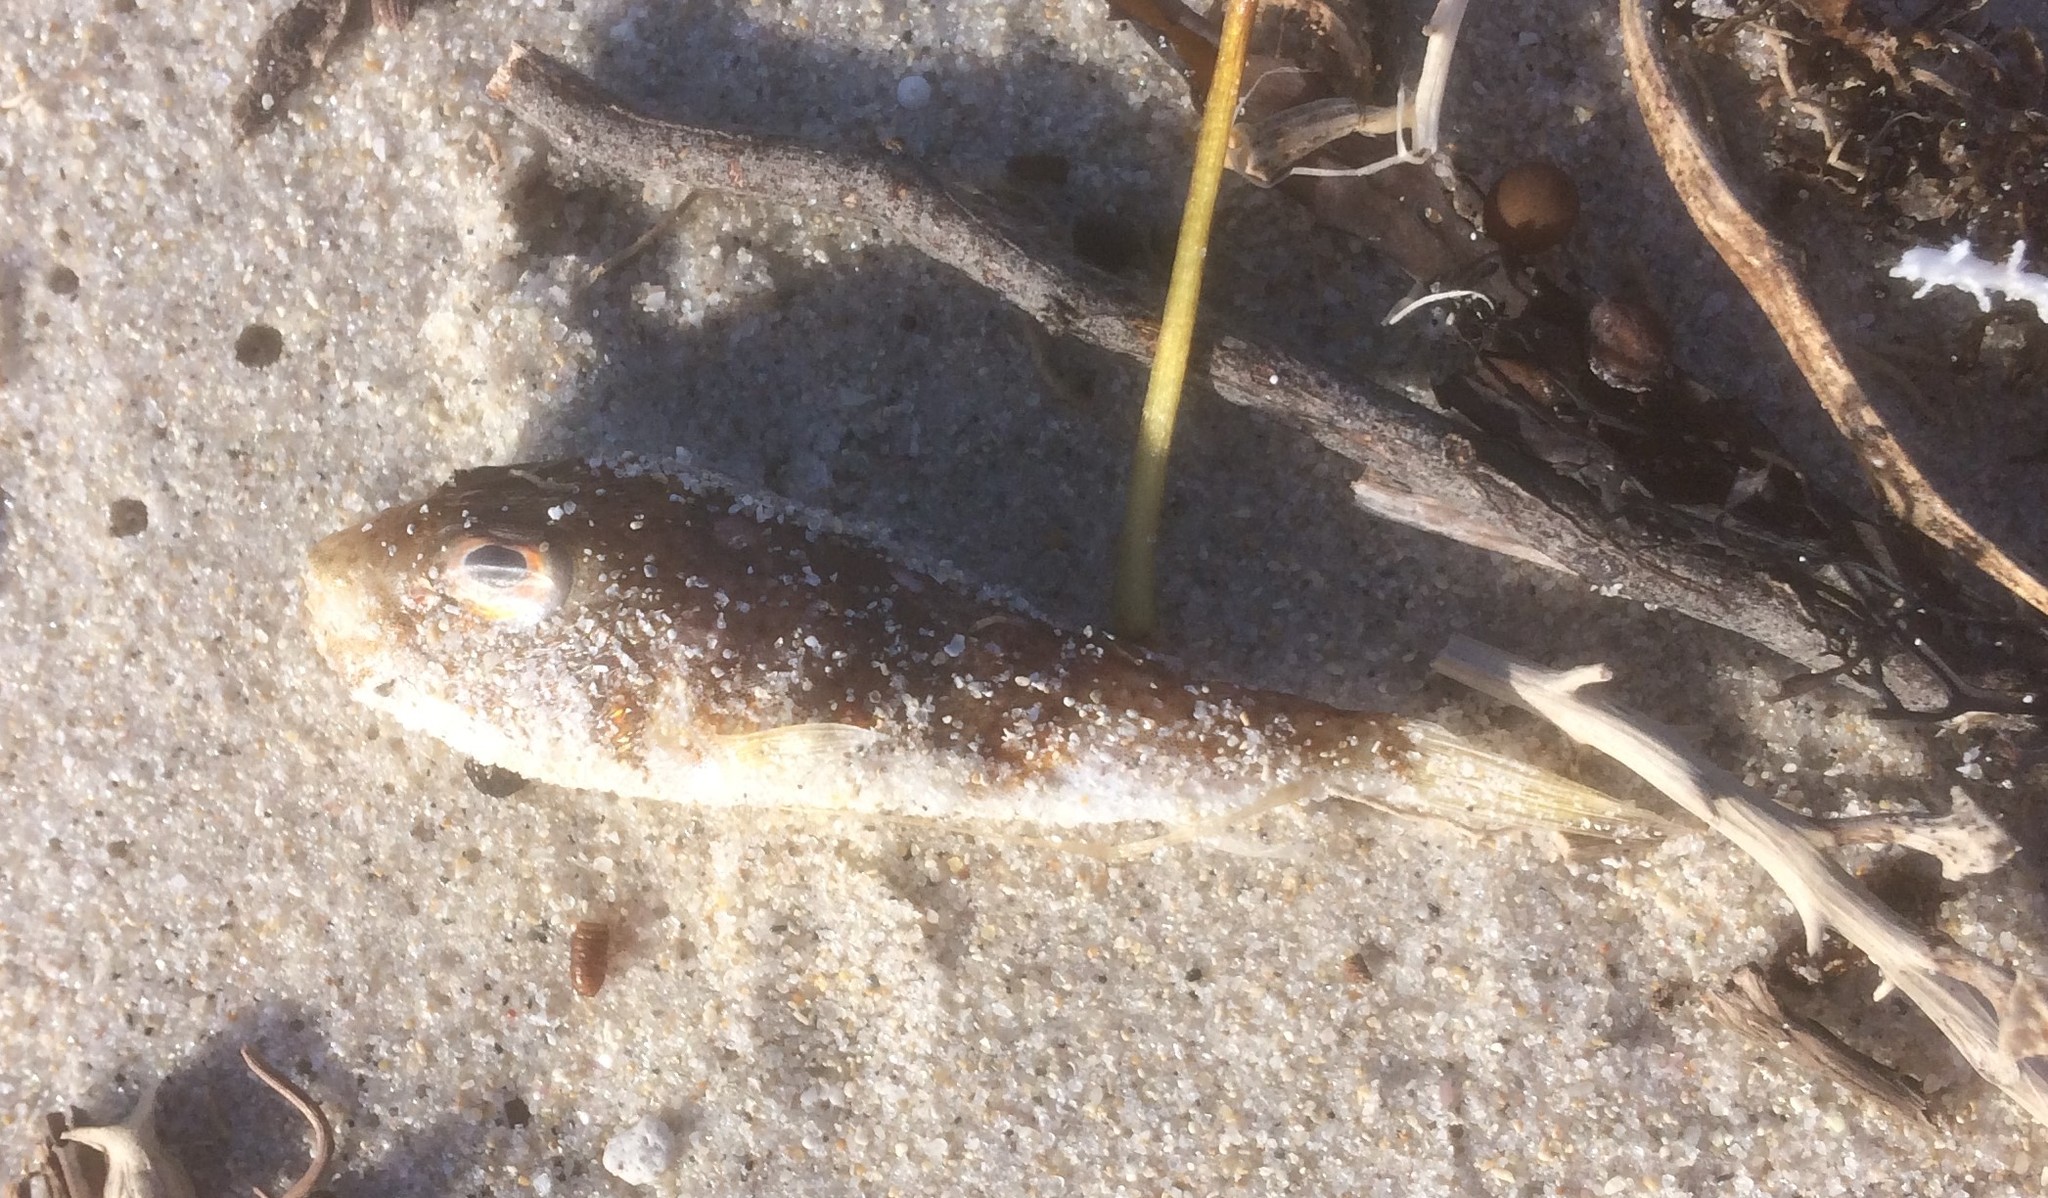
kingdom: Animalia
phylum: Chordata
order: Tetraodontiformes
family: Tetraodontidae
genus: Polyspina
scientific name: Polyspina piosae
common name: Orange-barred pufferfish
